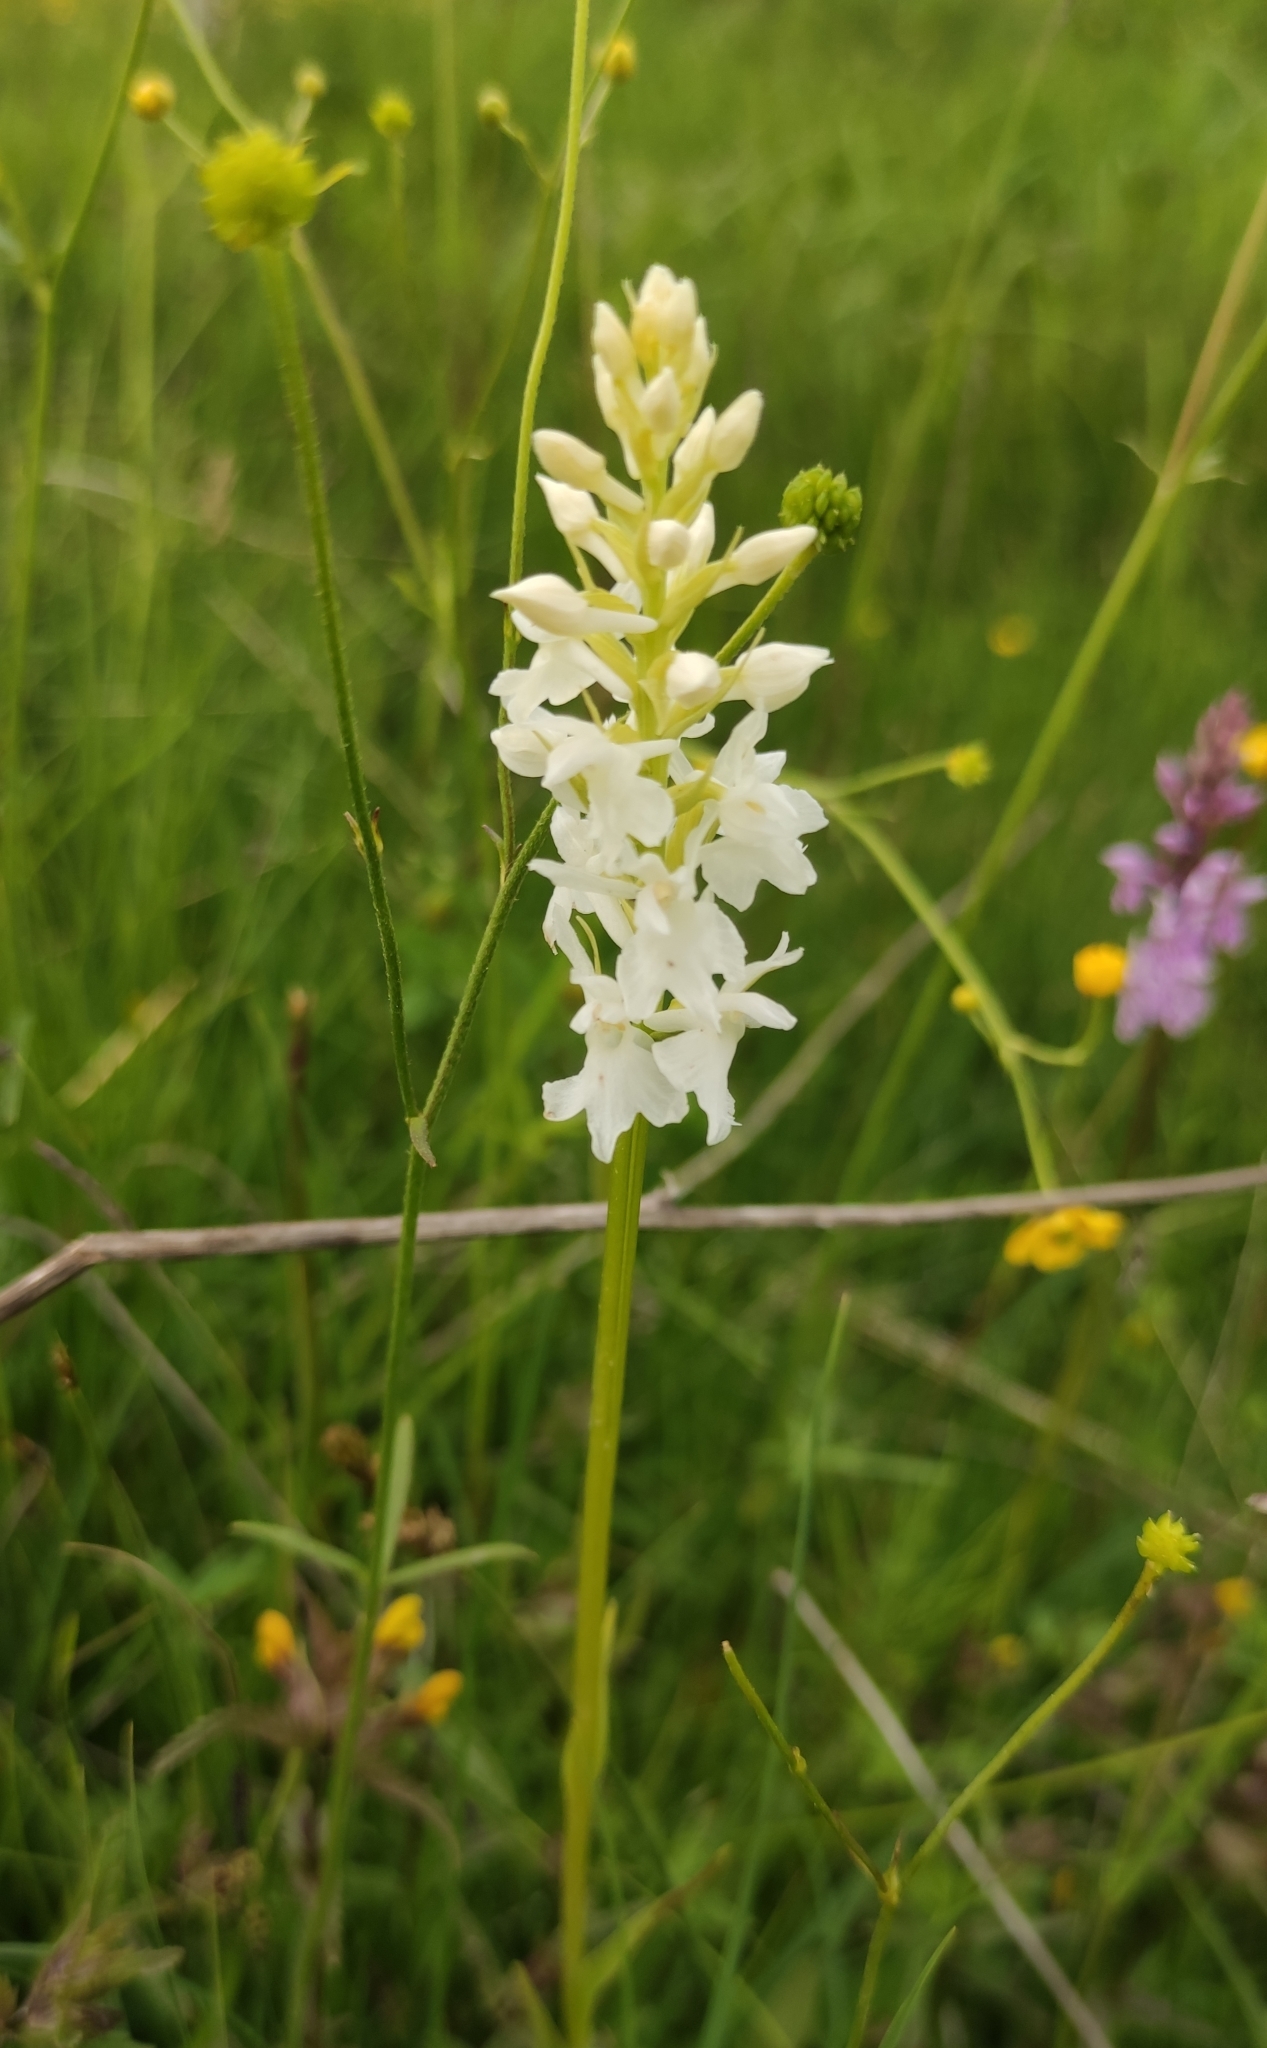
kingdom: Plantae
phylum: Tracheophyta
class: Liliopsida
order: Asparagales
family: Orchidaceae
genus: Dactylorhiza
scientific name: Dactylorhiza maculata
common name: Heath spotted-orchid
